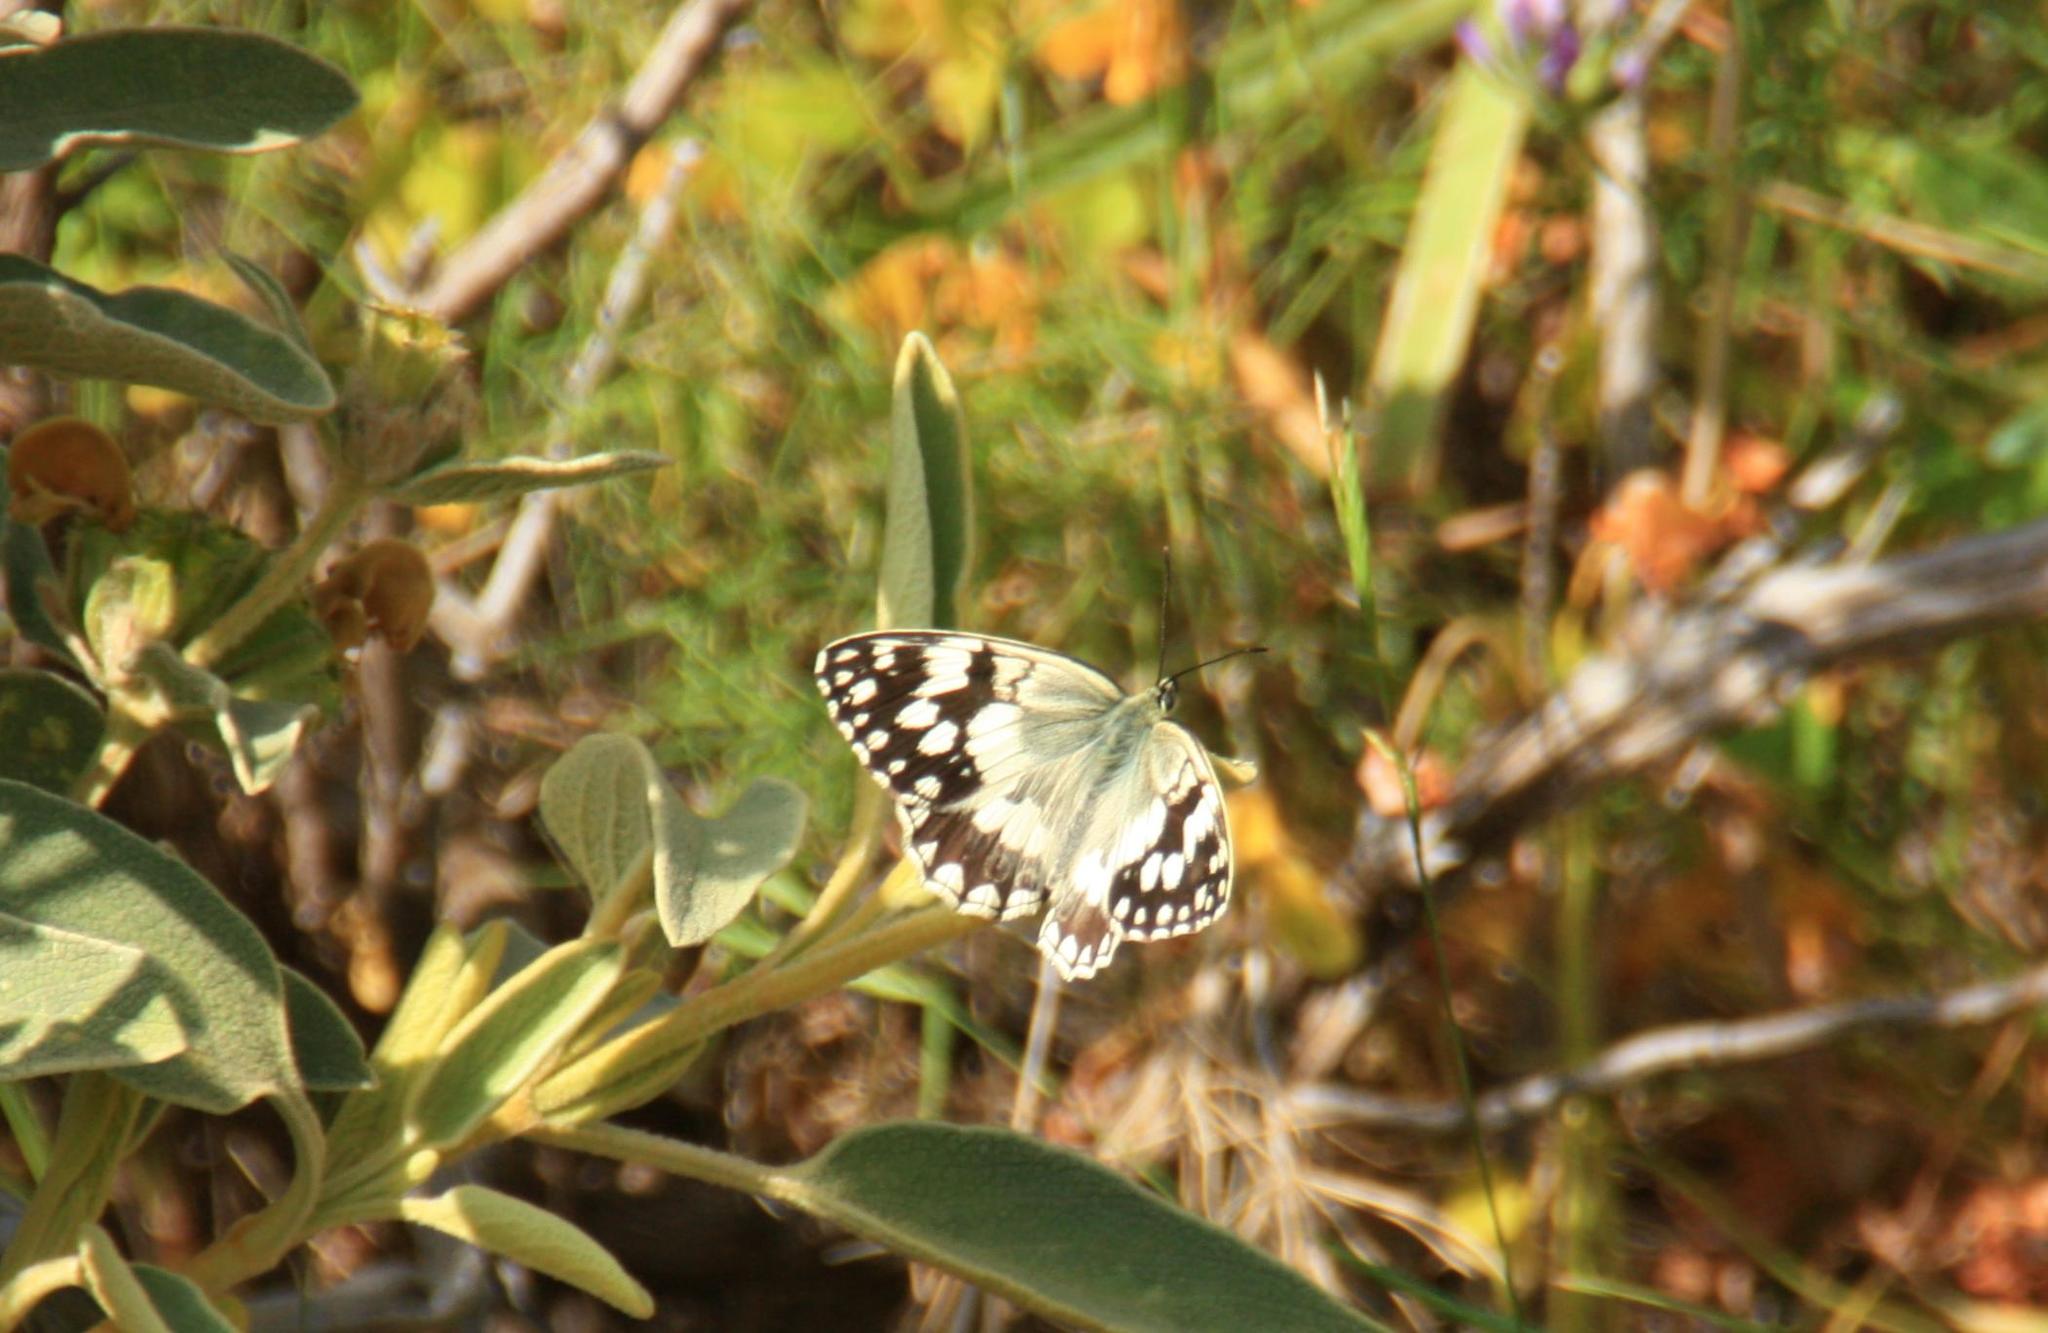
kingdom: Animalia
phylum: Arthropoda
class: Insecta
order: Lepidoptera
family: Nymphalidae
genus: Melanargia
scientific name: Melanargia larissa
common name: Balkan marbled white
